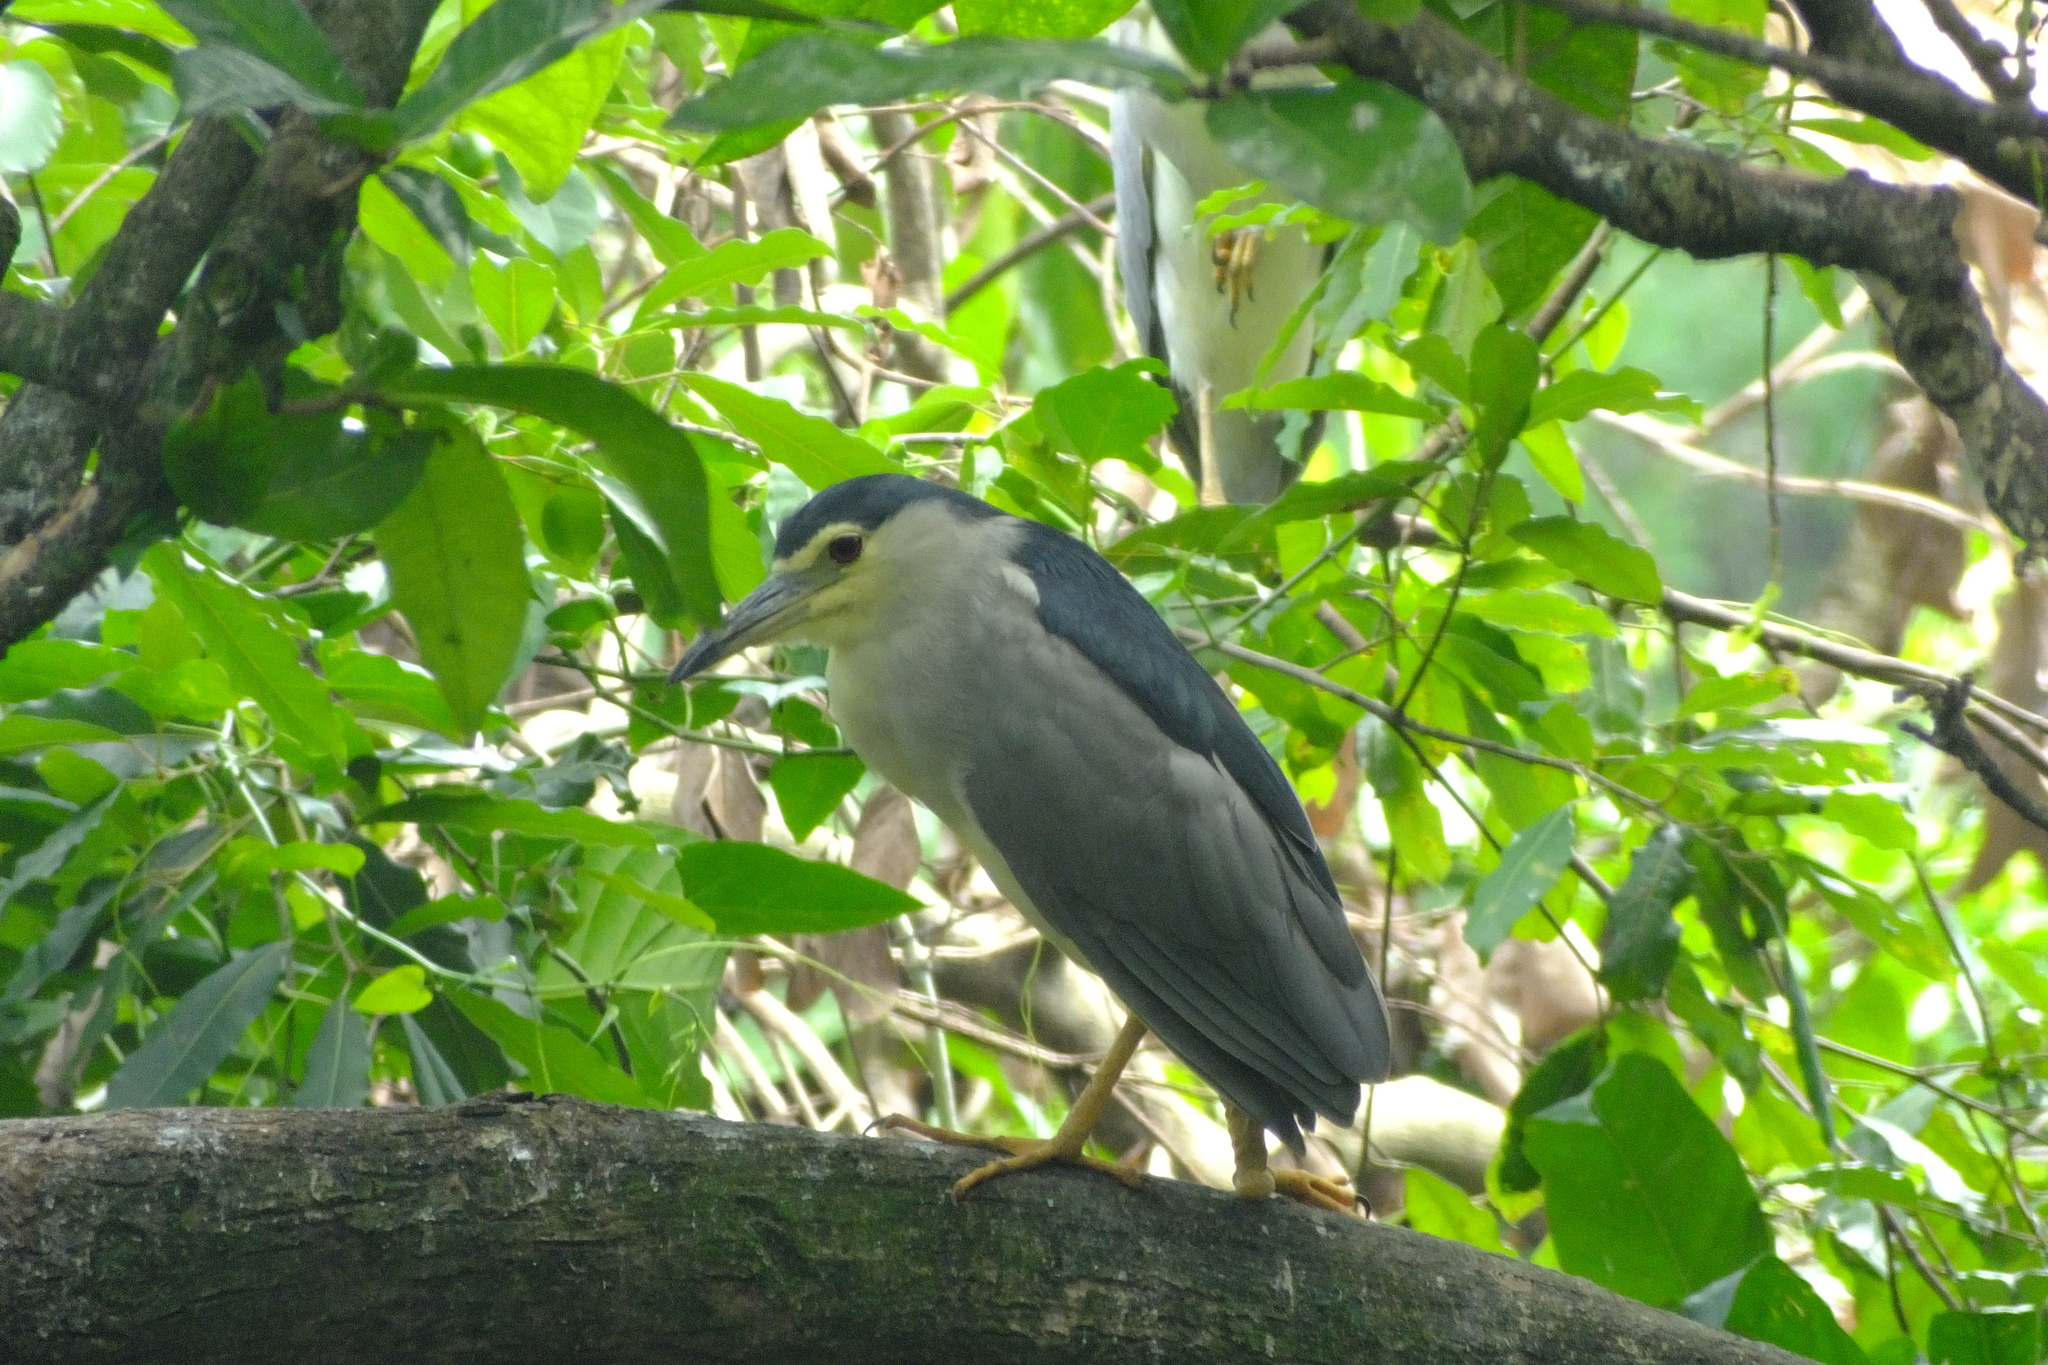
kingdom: Animalia
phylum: Chordata
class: Aves
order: Pelecaniformes
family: Ardeidae
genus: Nycticorax
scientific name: Nycticorax nycticorax
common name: Black-crowned night heron
